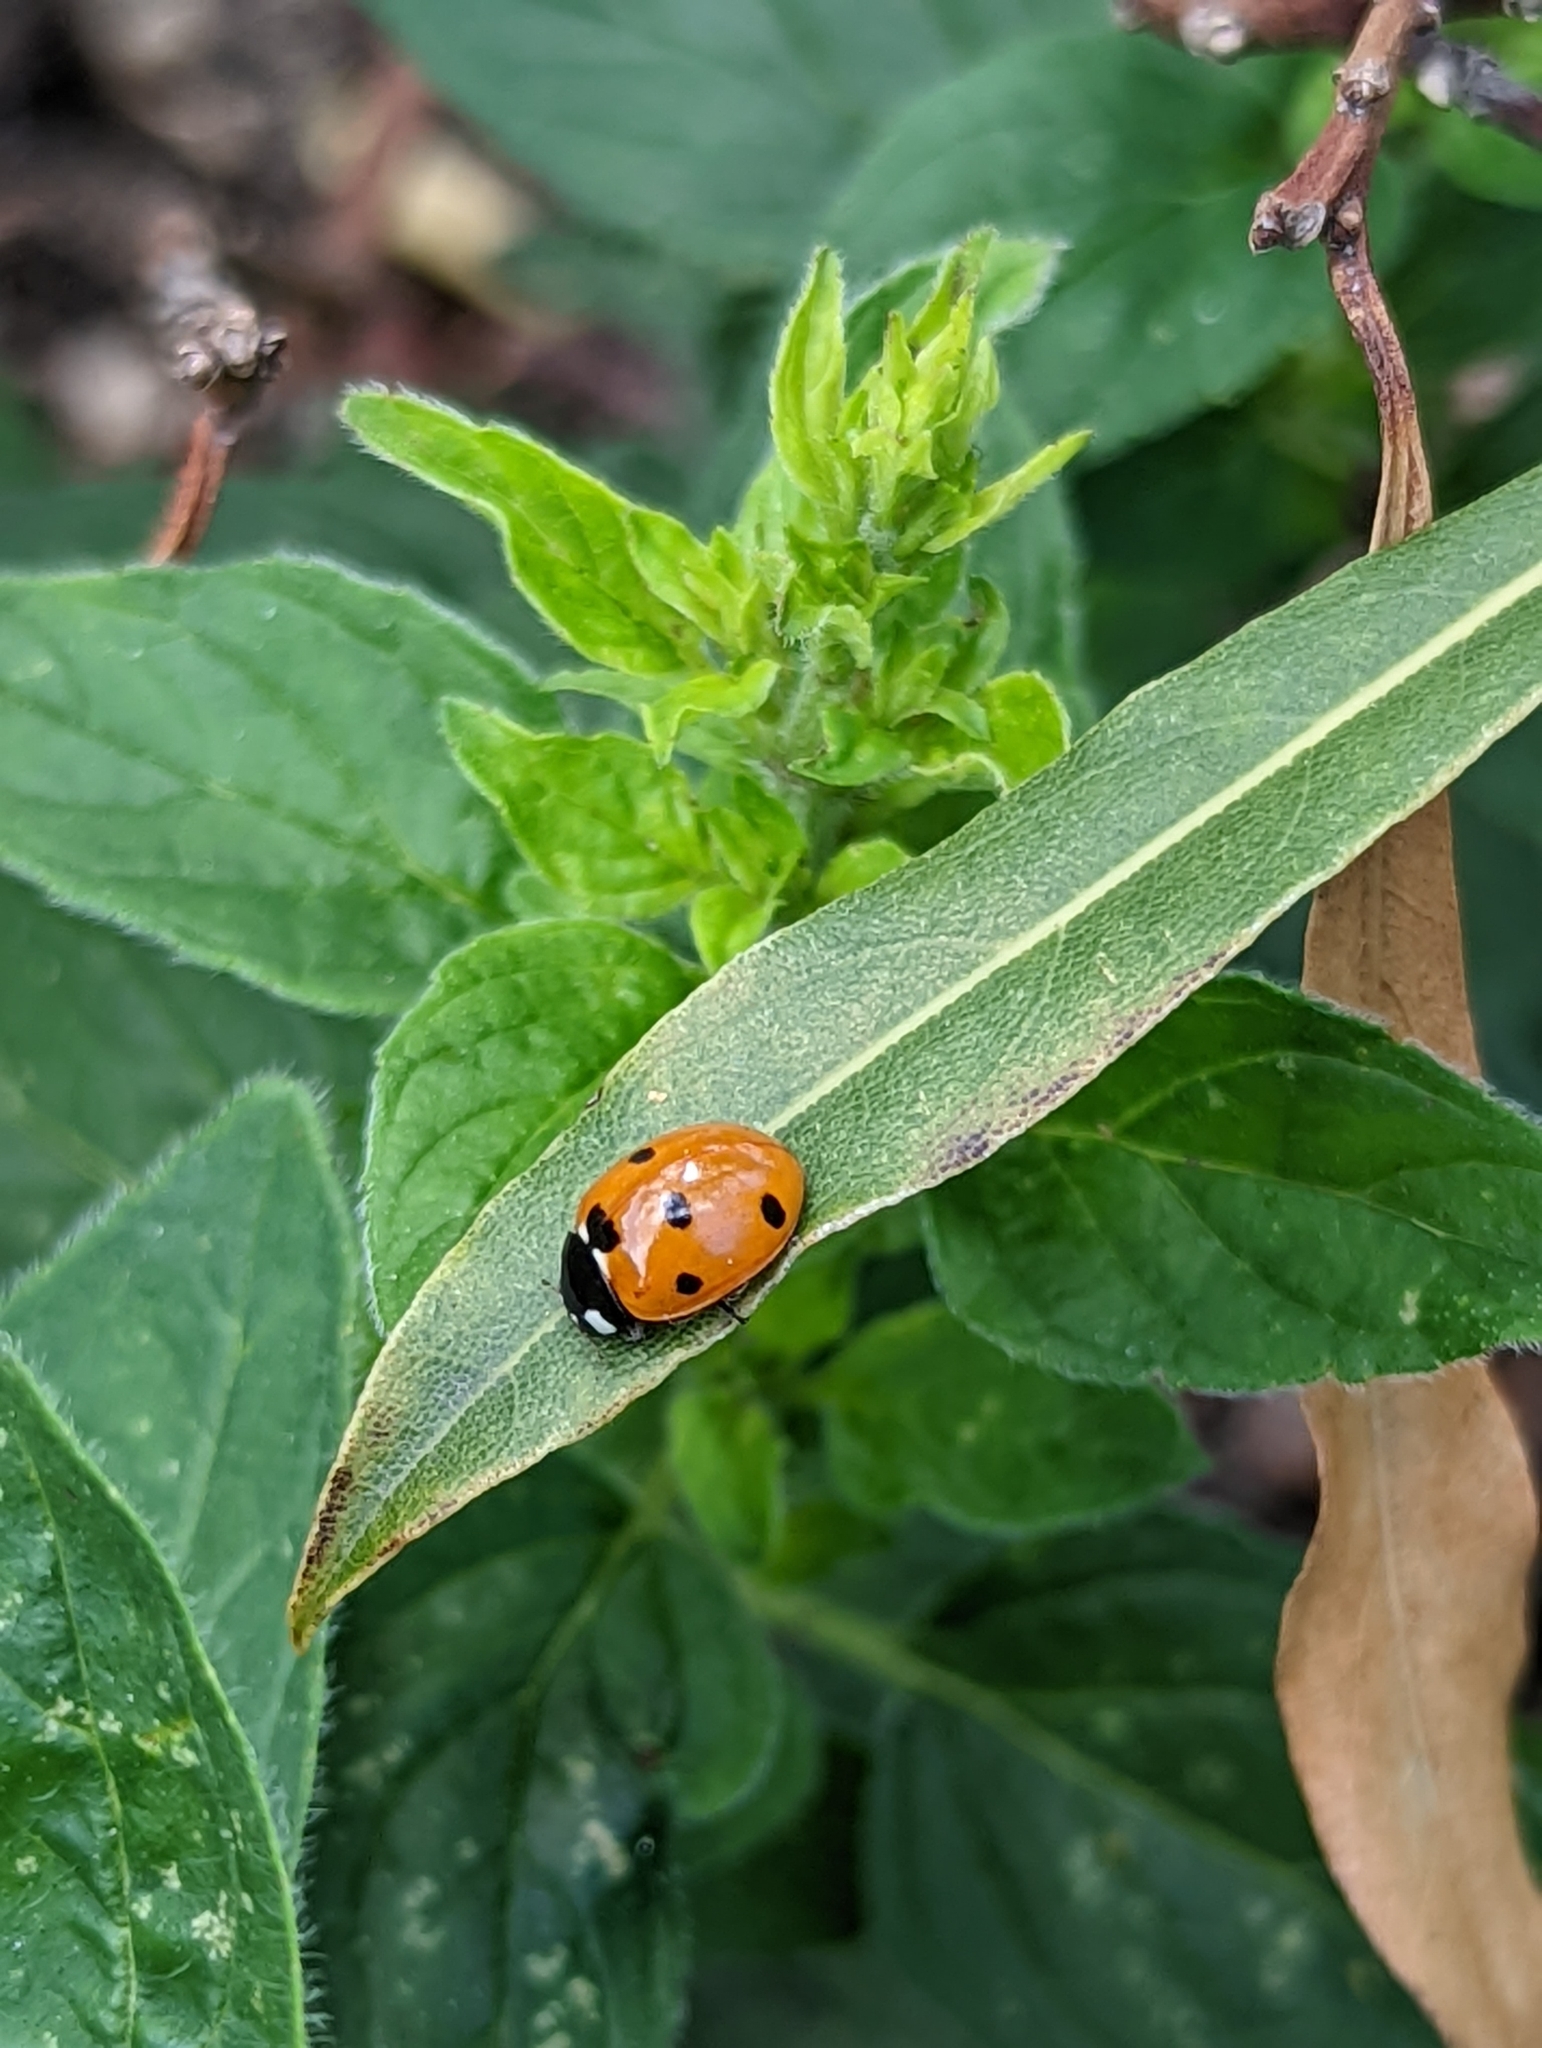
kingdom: Animalia
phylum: Arthropoda
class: Insecta
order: Coleoptera
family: Coccinellidae
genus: Coccinella
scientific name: Coccinella septempunctata
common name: Sevenspotted lady beetle
